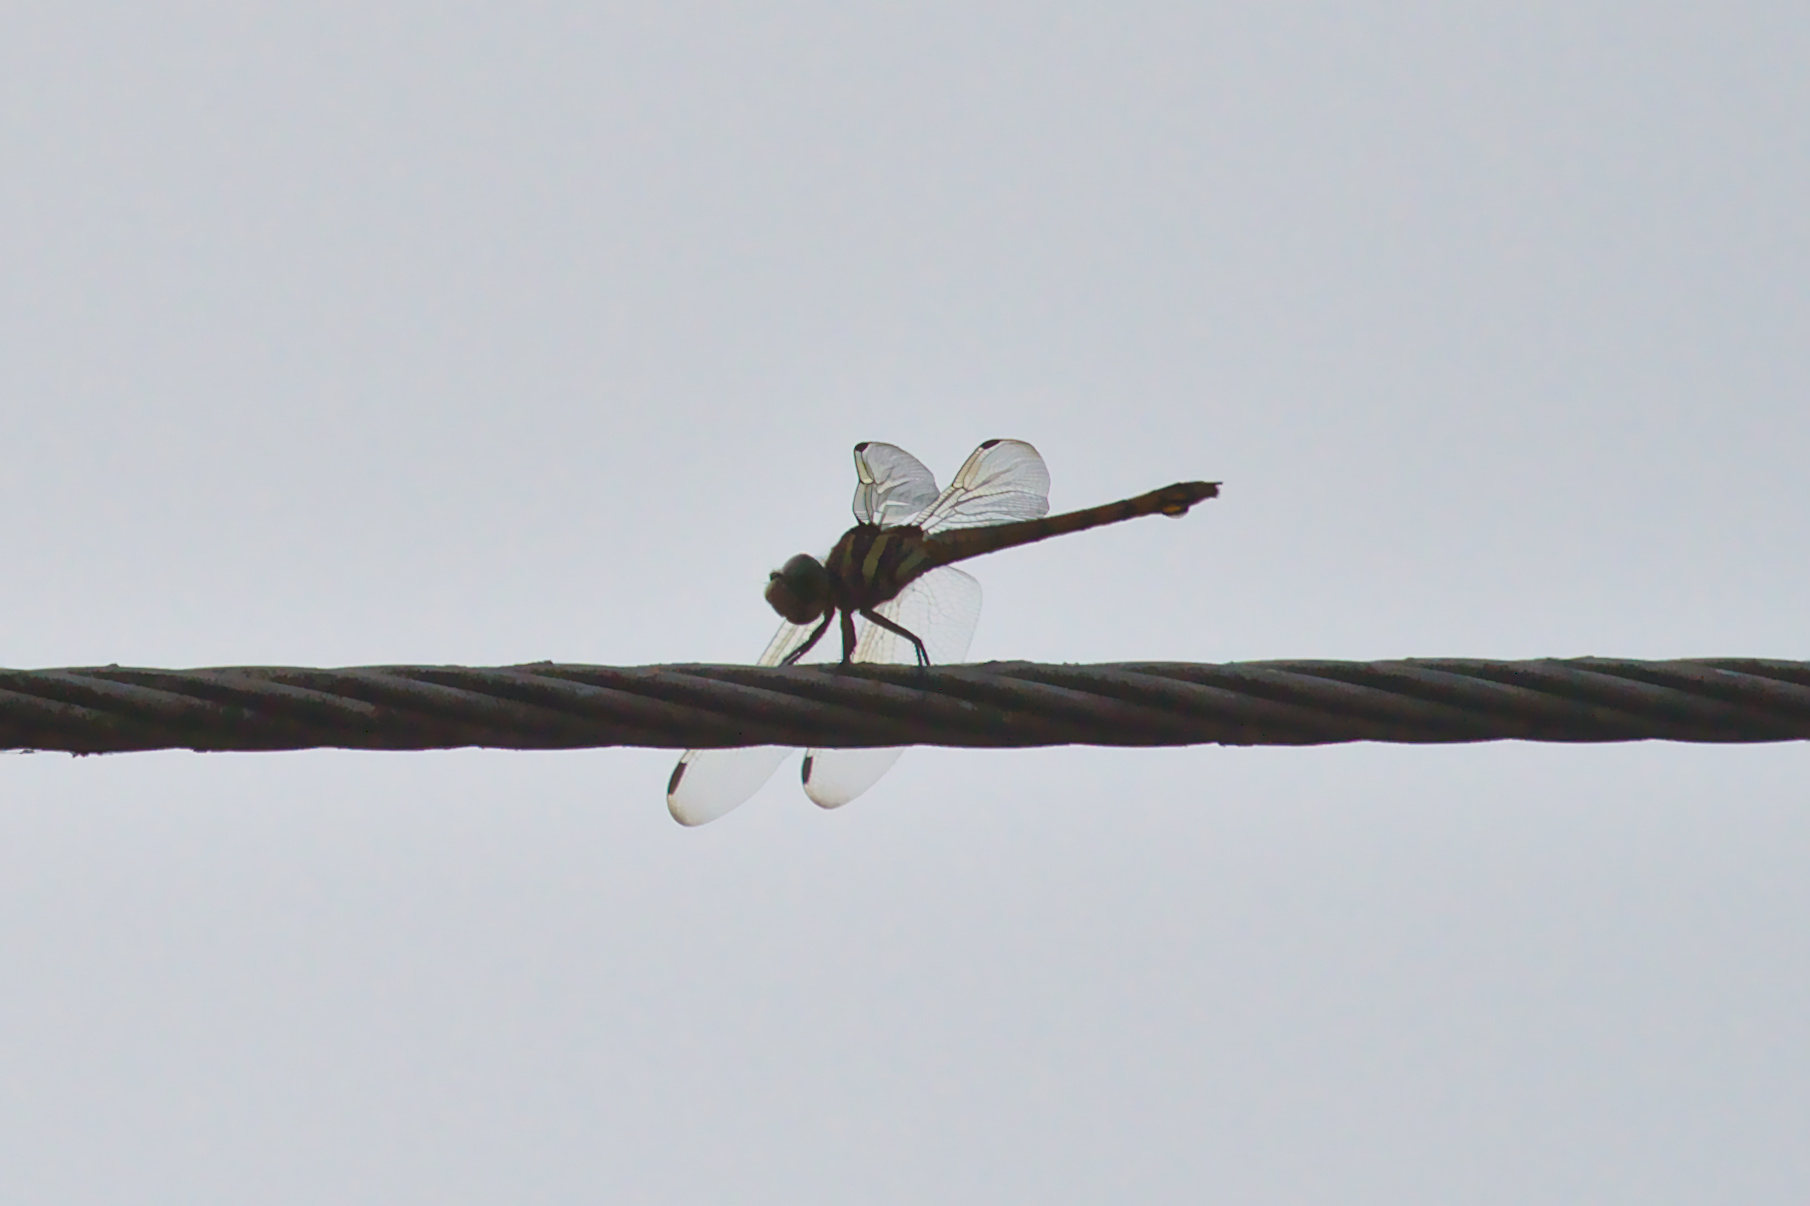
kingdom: Animalia
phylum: Arthropoda
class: Insecta
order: Odonata
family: Libellulidae
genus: Potamarcha
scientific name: Potamarcha congener
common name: Blue chaser
